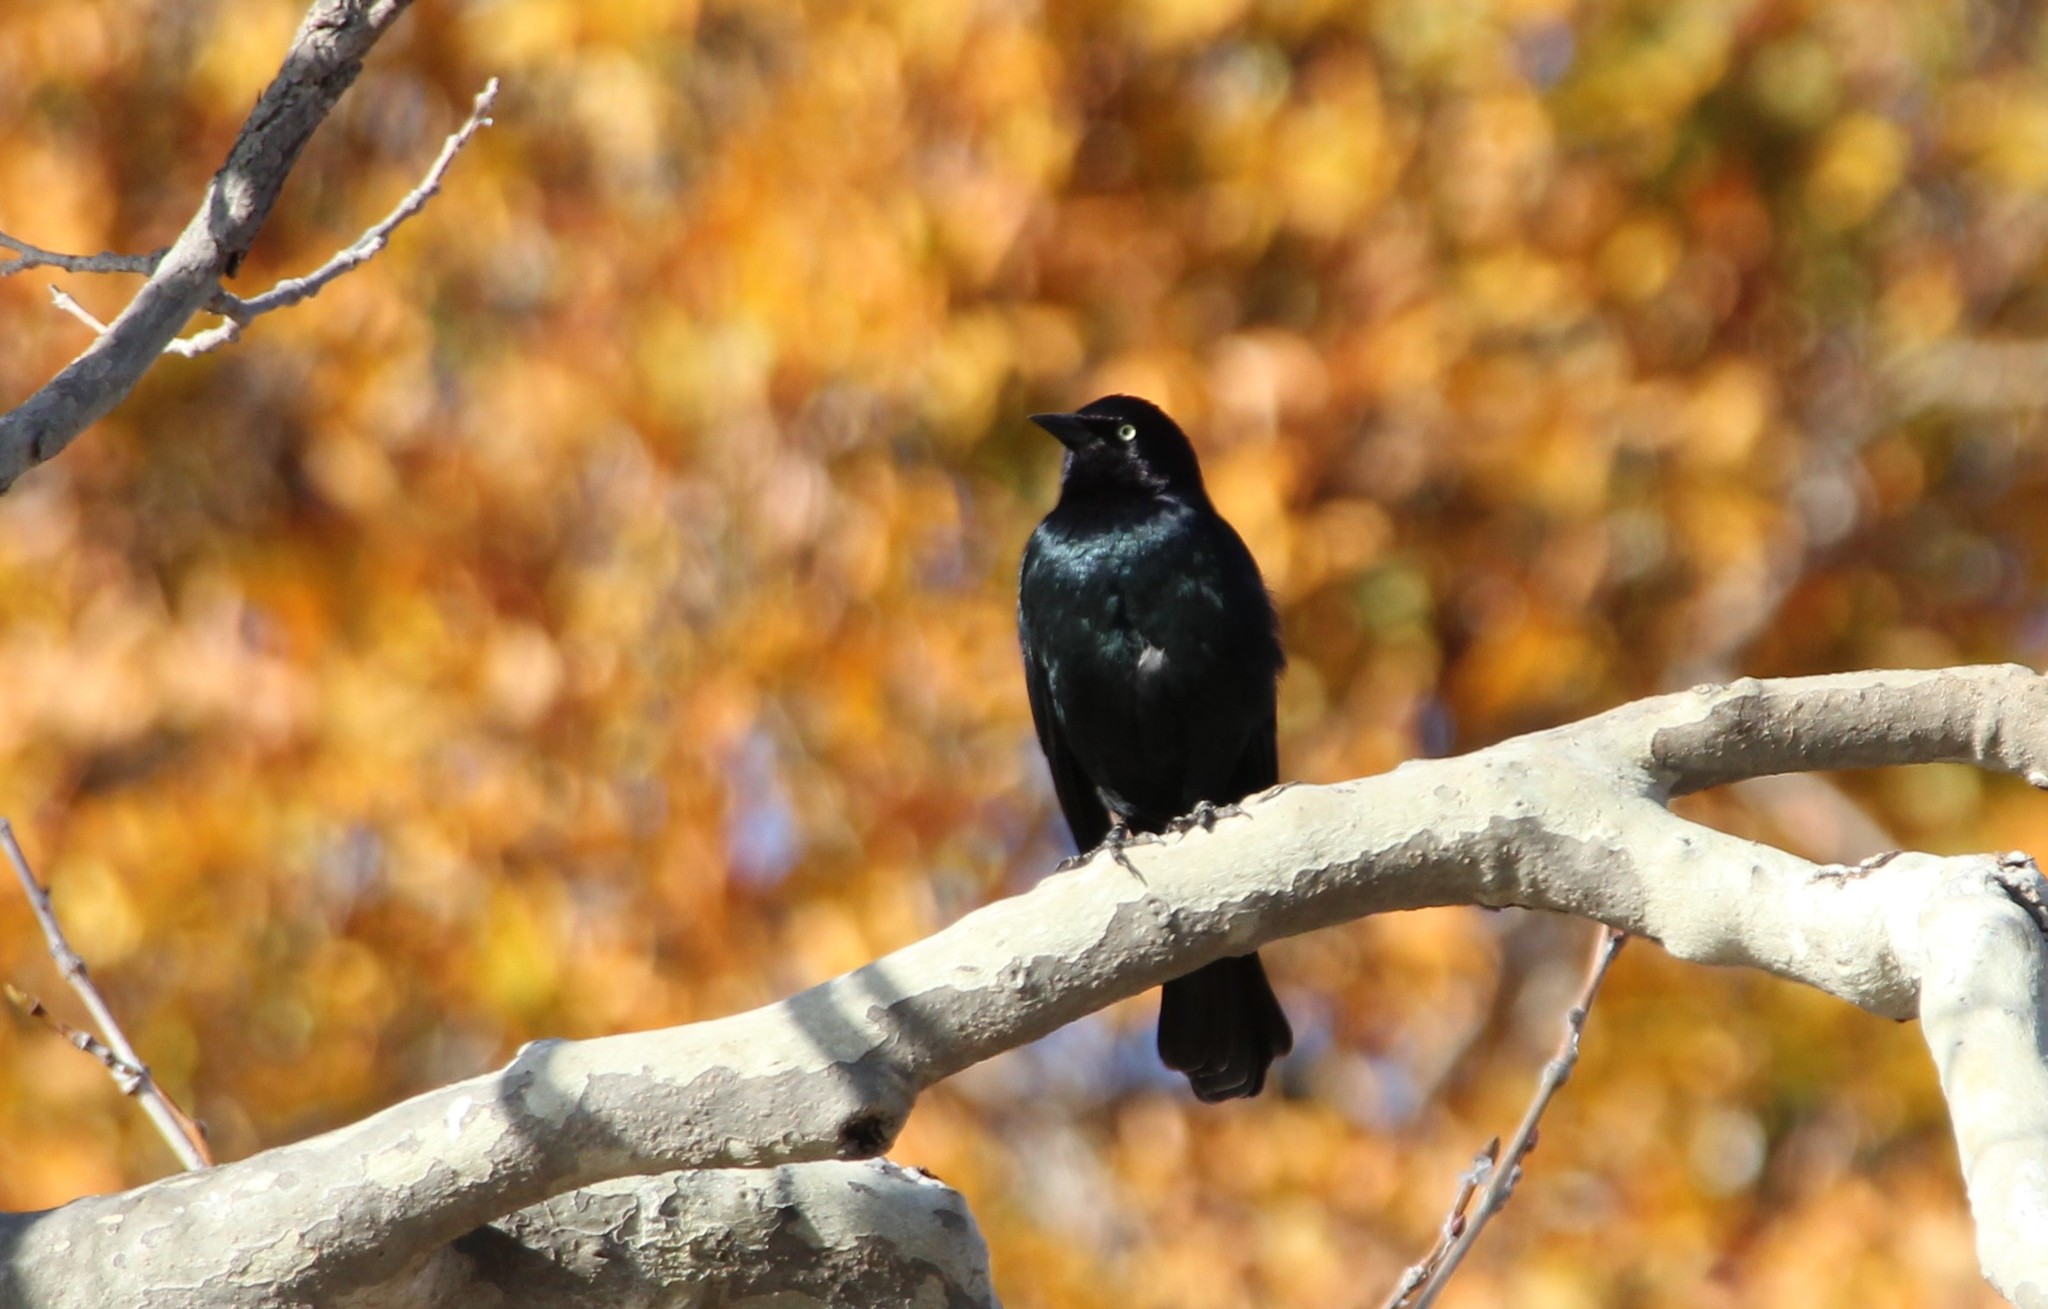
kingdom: Animalia
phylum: Chordata
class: Aves
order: Passeriformes
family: Icteridae
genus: Euphagus
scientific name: Euphagus cyanocephalus
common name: Brewer's blackbird
